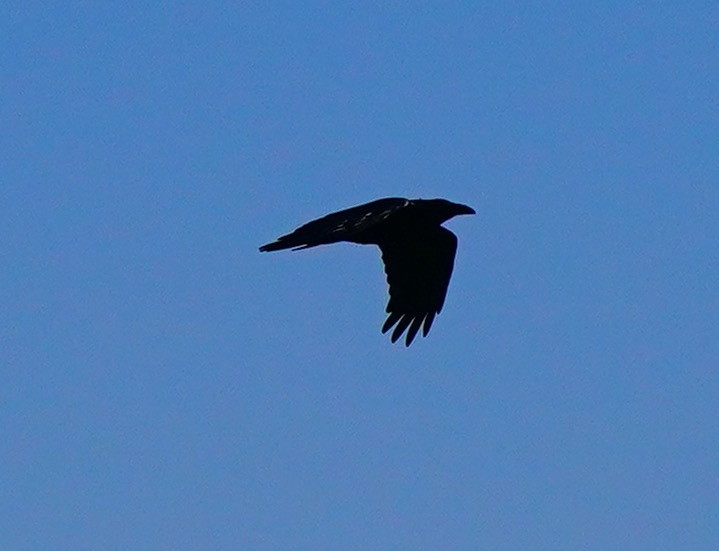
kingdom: Animalia
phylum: Chordata
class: Aves
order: Passeriformes
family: Corvidae
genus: Corvus
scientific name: Corvus corax
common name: Common raven
